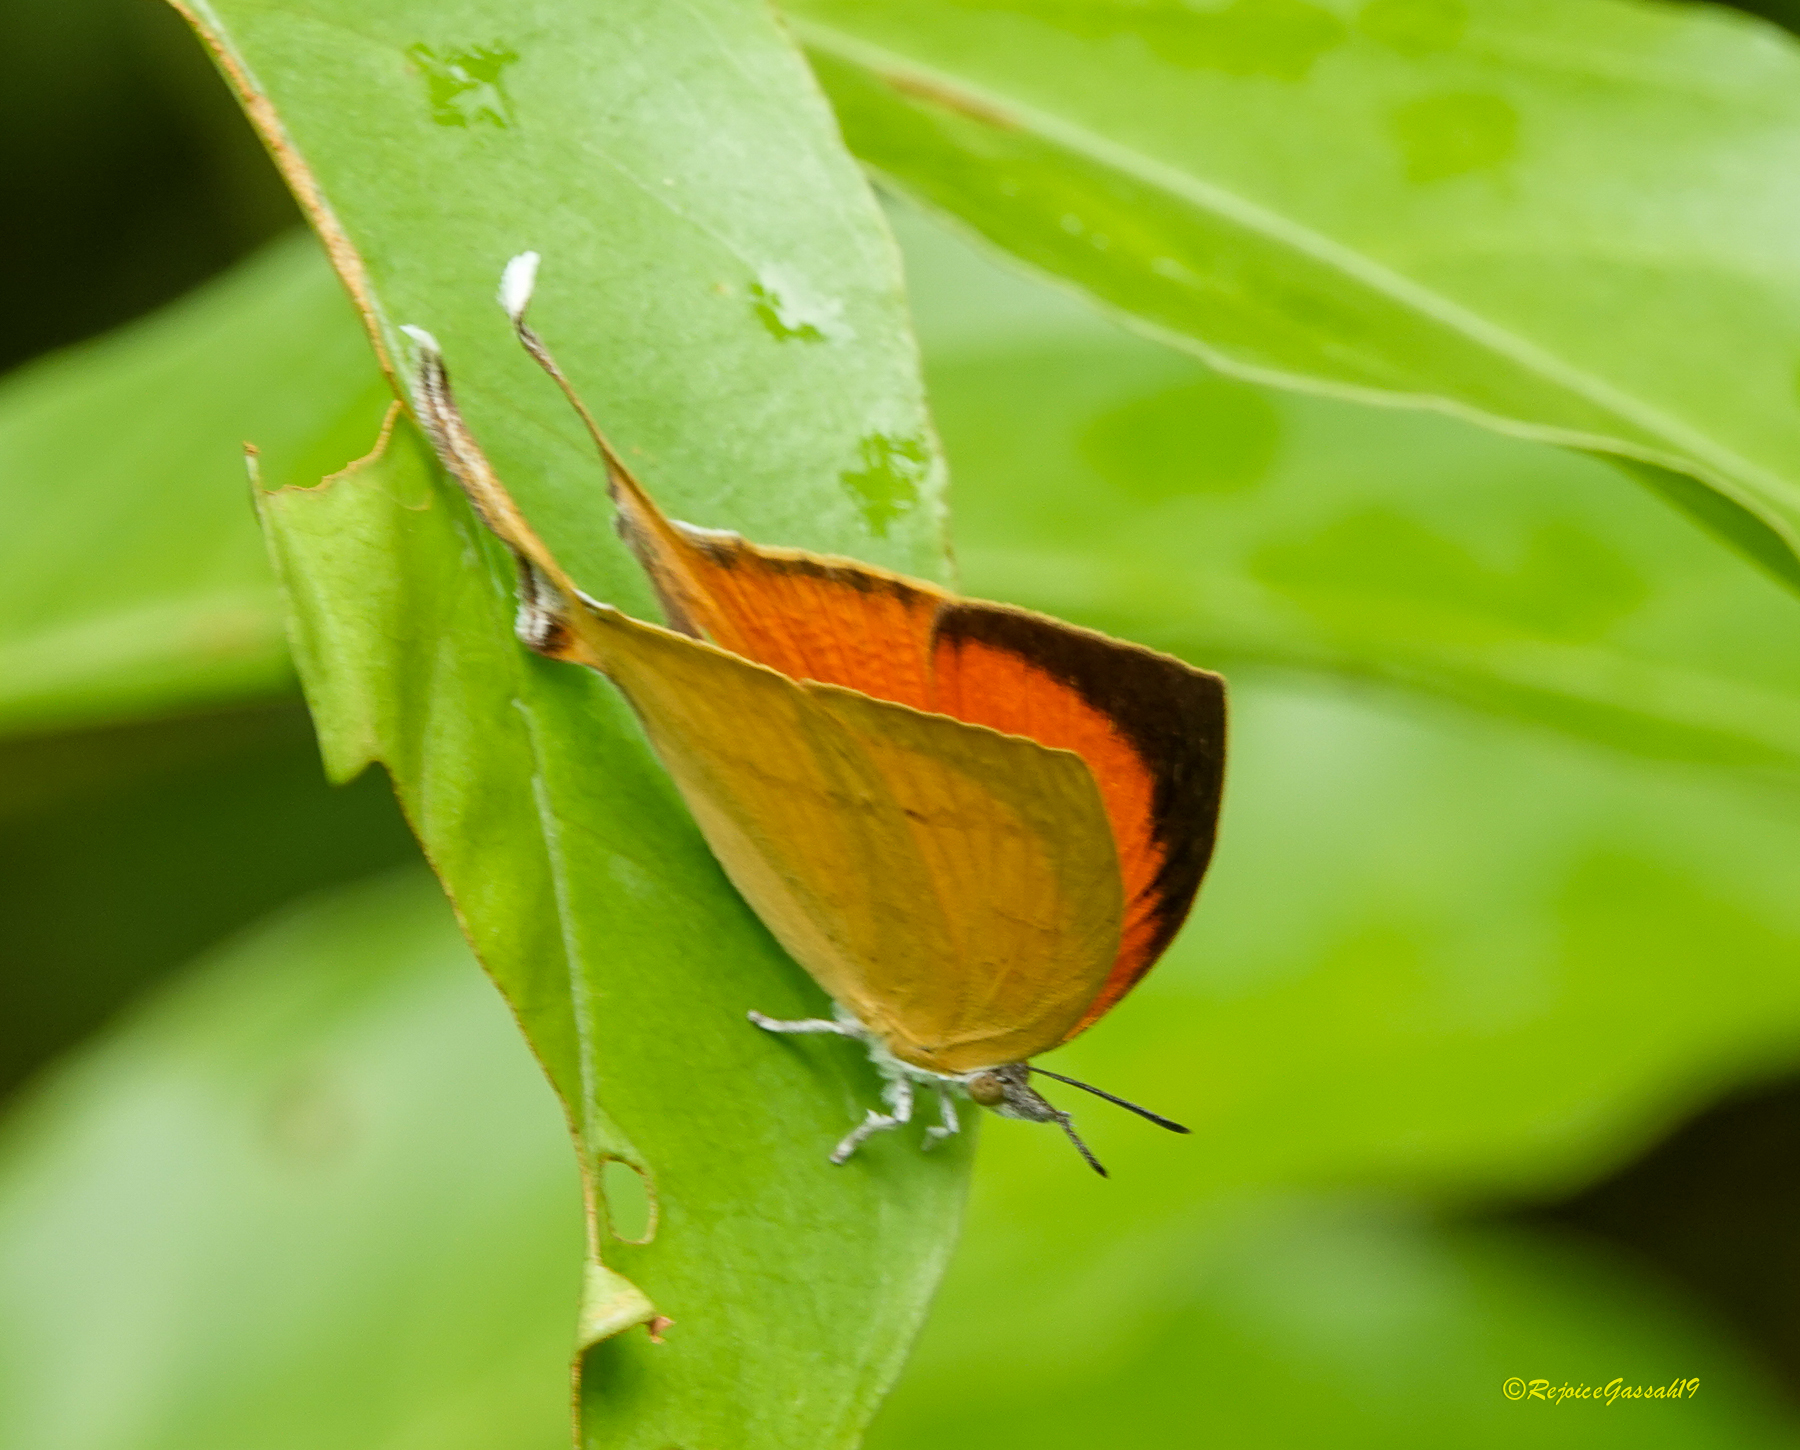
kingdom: Animalia
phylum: Arthropoda
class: Insecta
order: Lepidoptera
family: Lycaenidae
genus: Loxura
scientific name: Loxura atymnus
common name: Common yamfly
